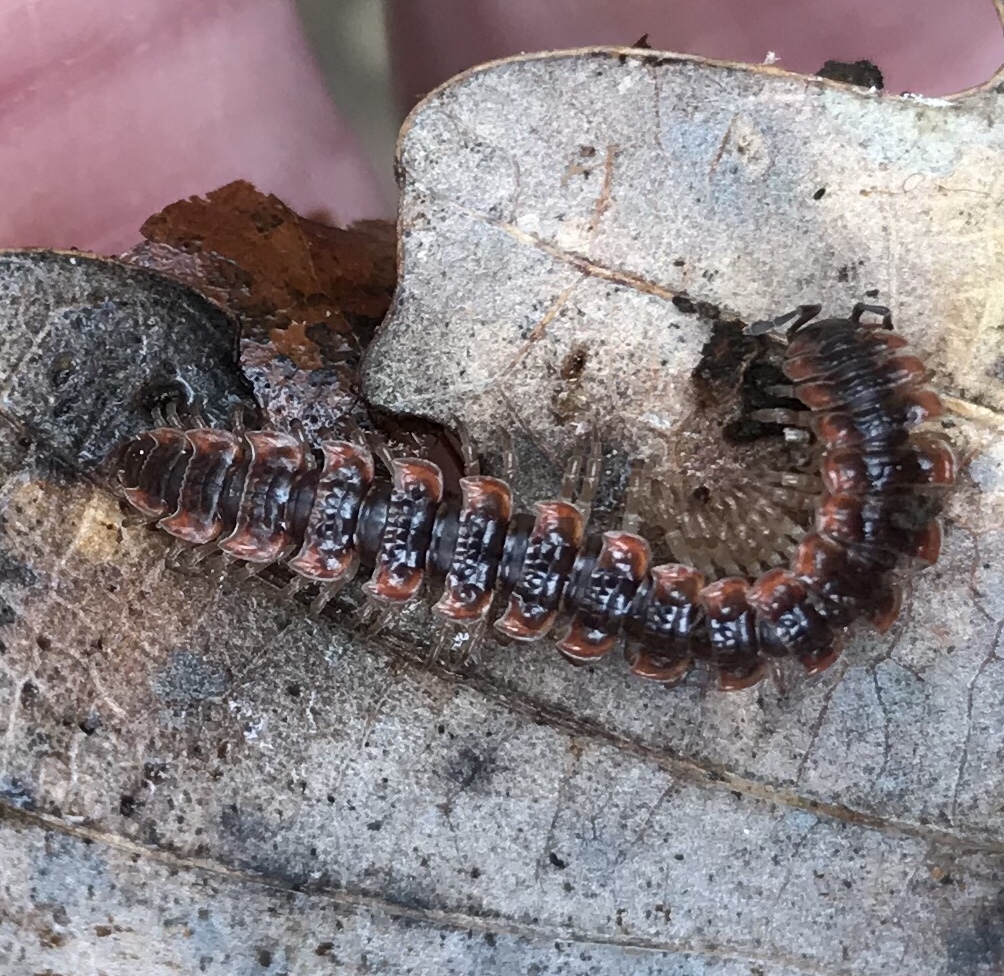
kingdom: Animalia
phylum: Arthropoda
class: Diplopoda
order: Polydesmida
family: Polydesmidae
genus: Pseudopolydesmus
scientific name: Pseudopolydesmus canadensis
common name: Canadian flat-back millipede
